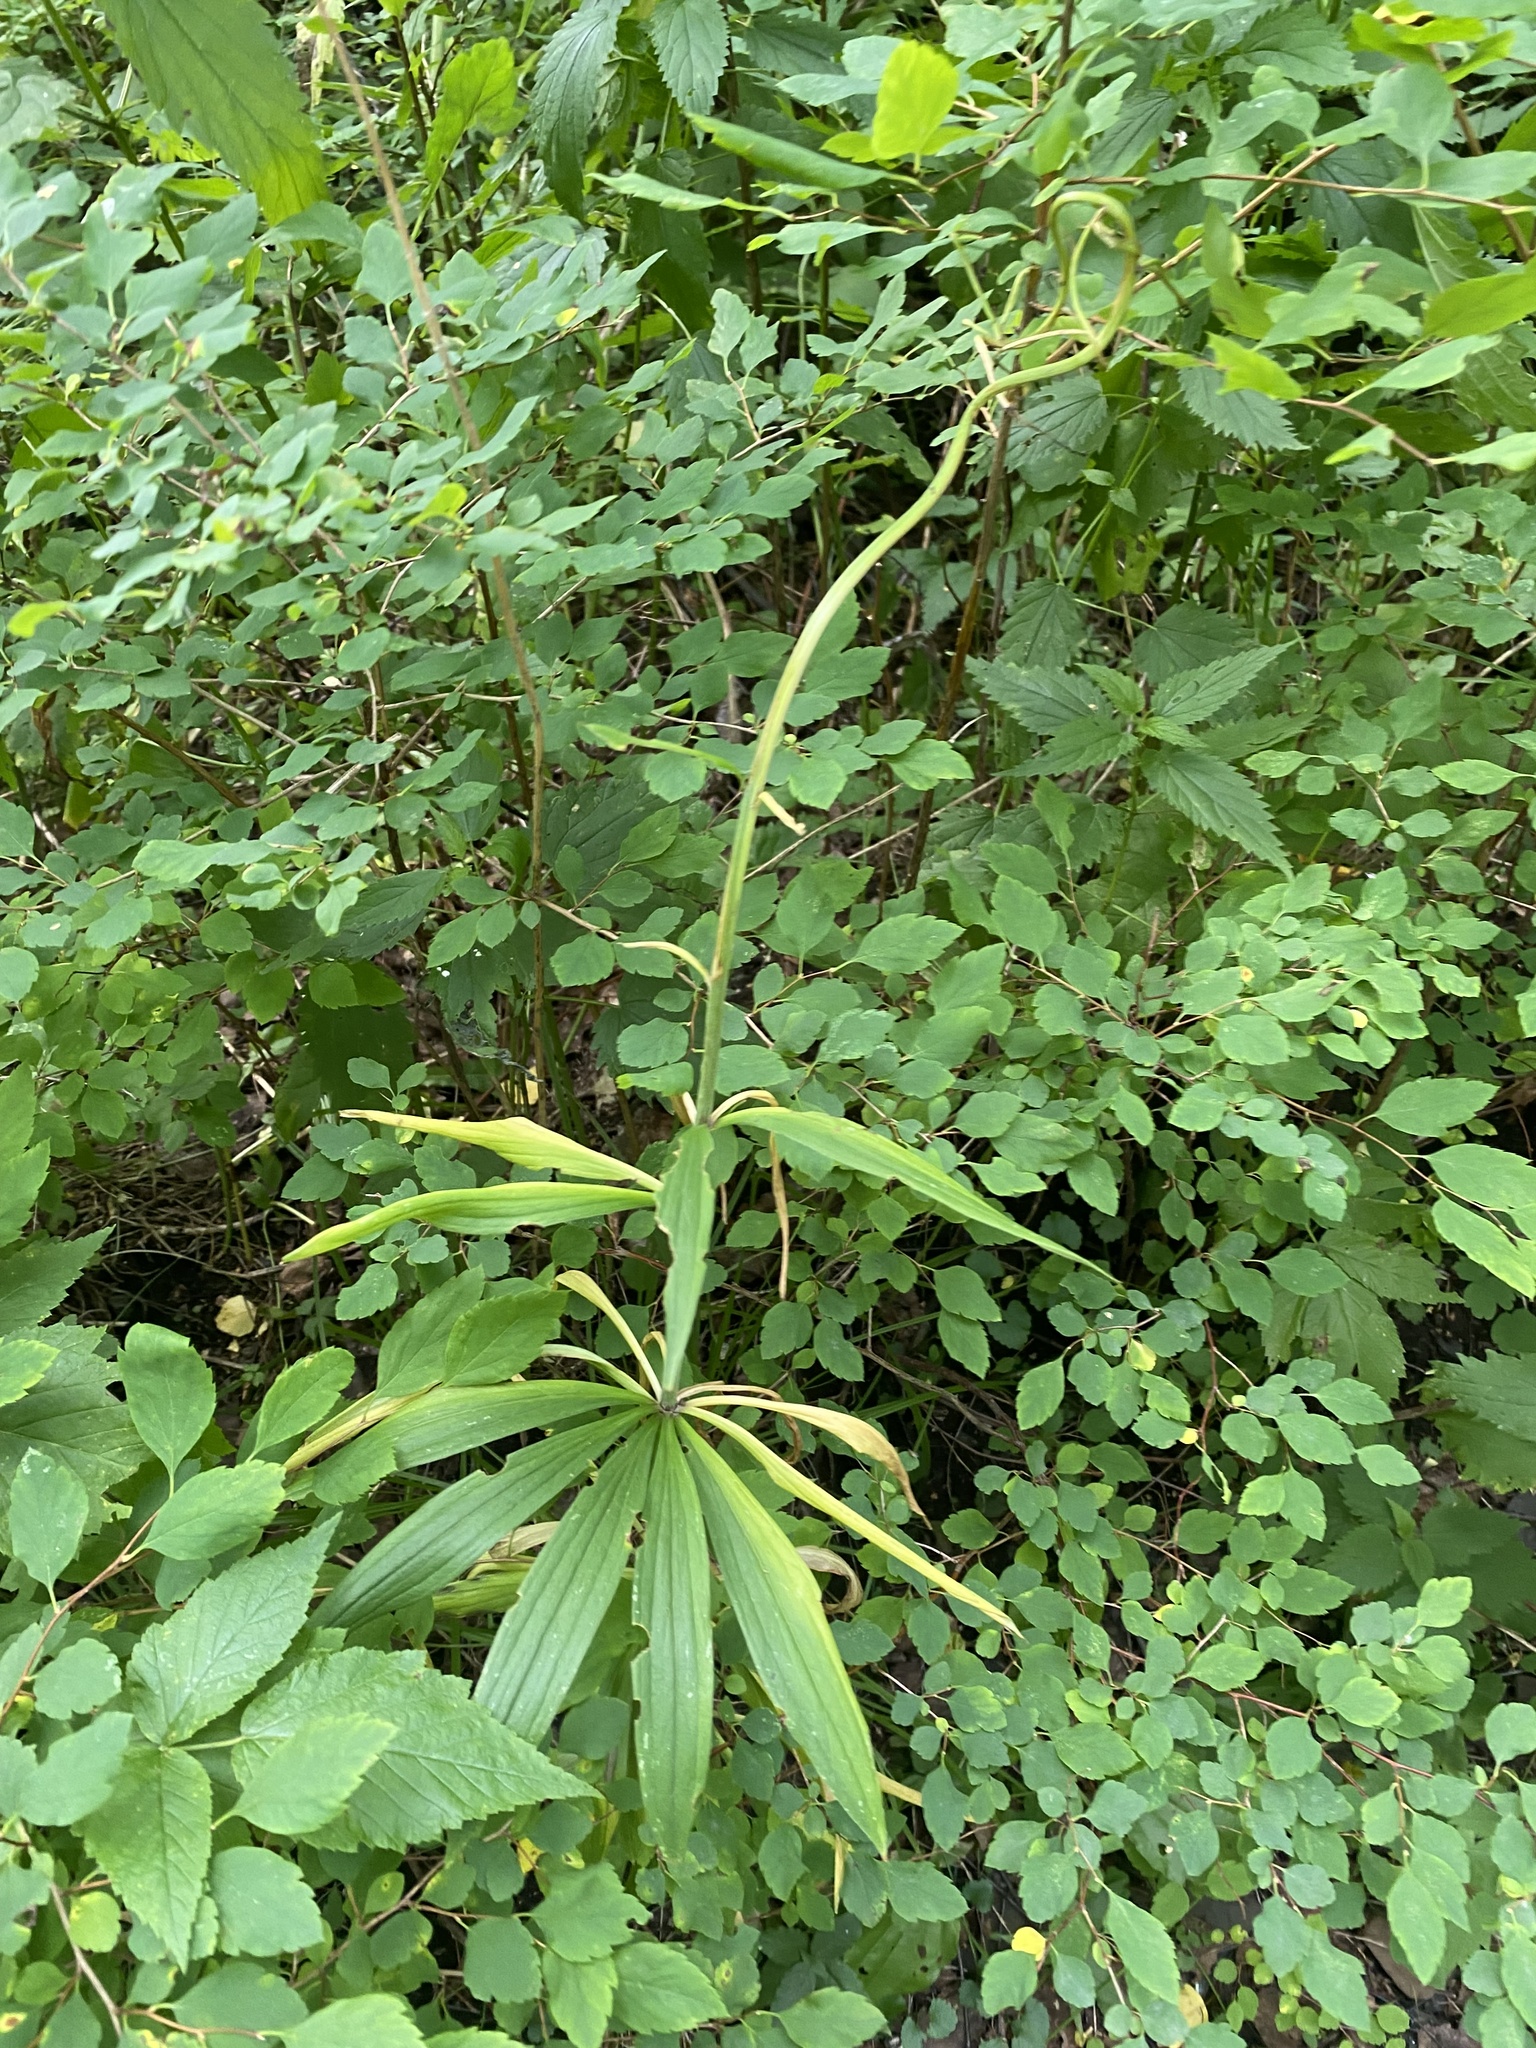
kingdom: Plantae
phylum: Tracheophyta
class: Liliopsida
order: Liliales
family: Liliaceae
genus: Lilium
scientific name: Lilium martagon
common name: Martagon lily
